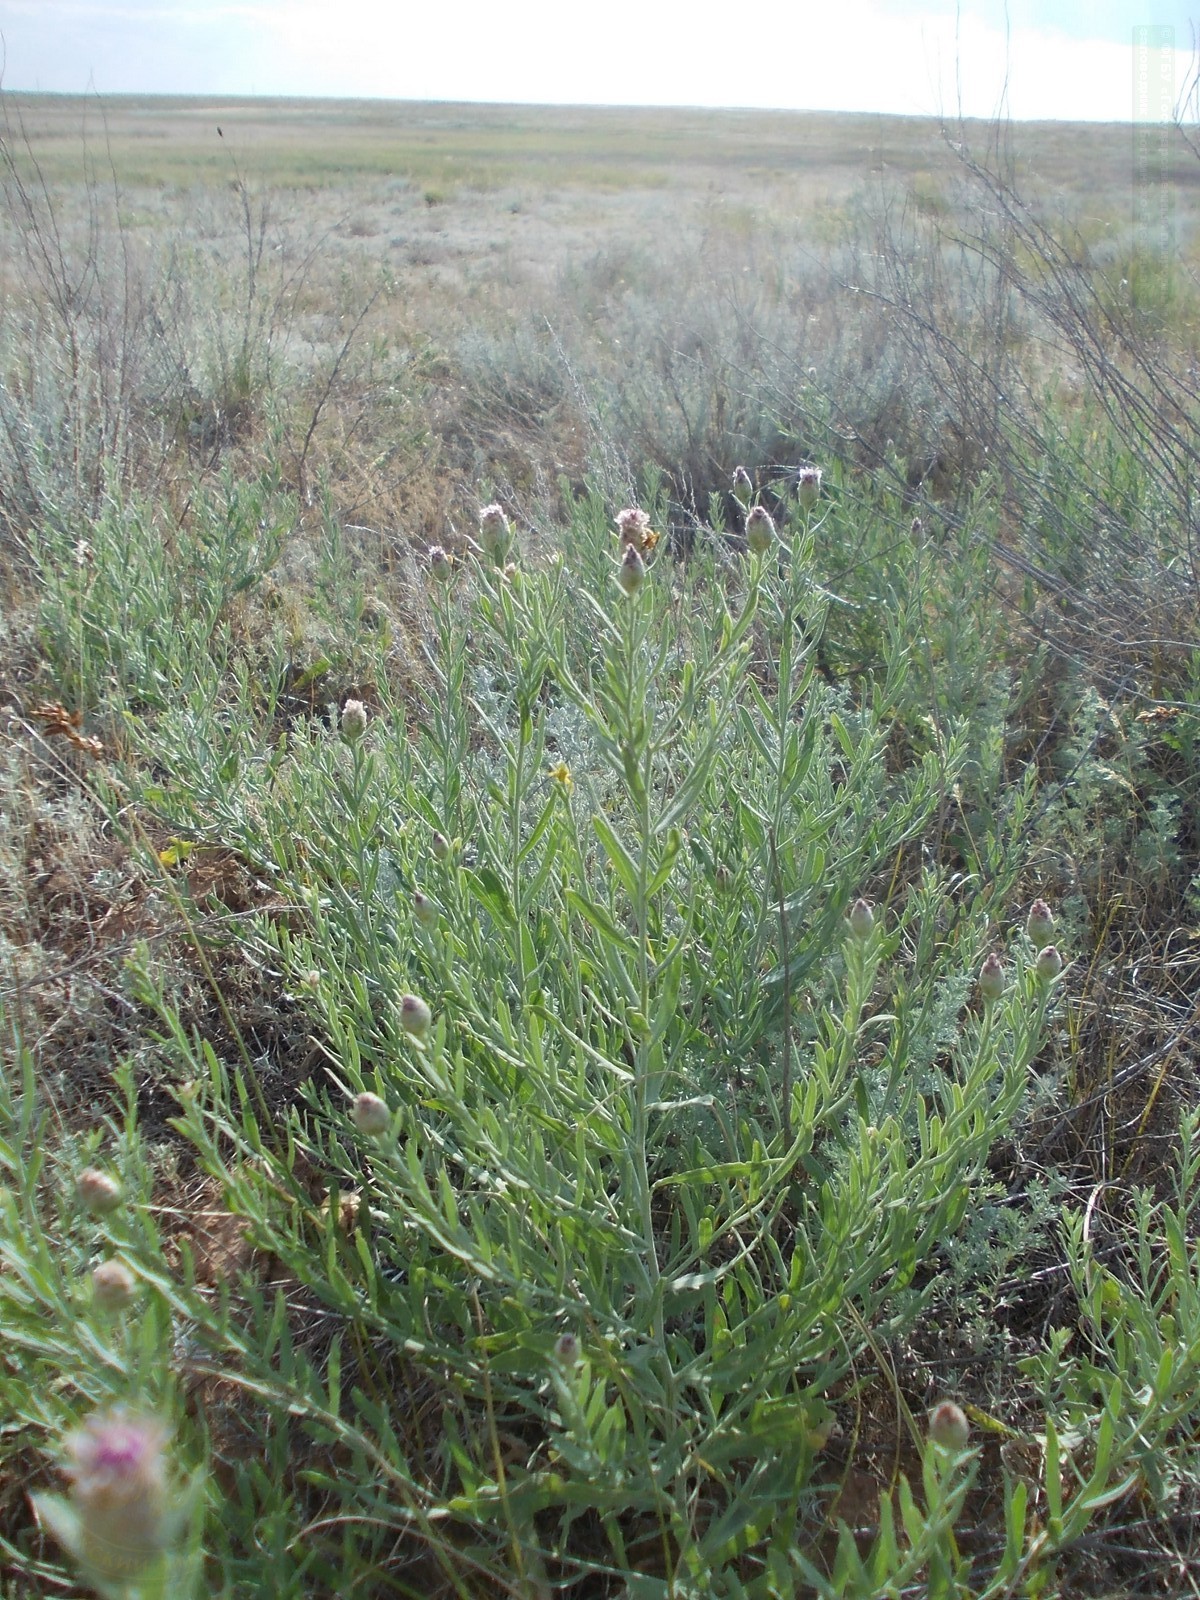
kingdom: Plantae
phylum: Tracheophyta
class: Magnoliopsida
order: Asterales
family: Asteraceae
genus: Leuzea
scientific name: Leuzea repens
